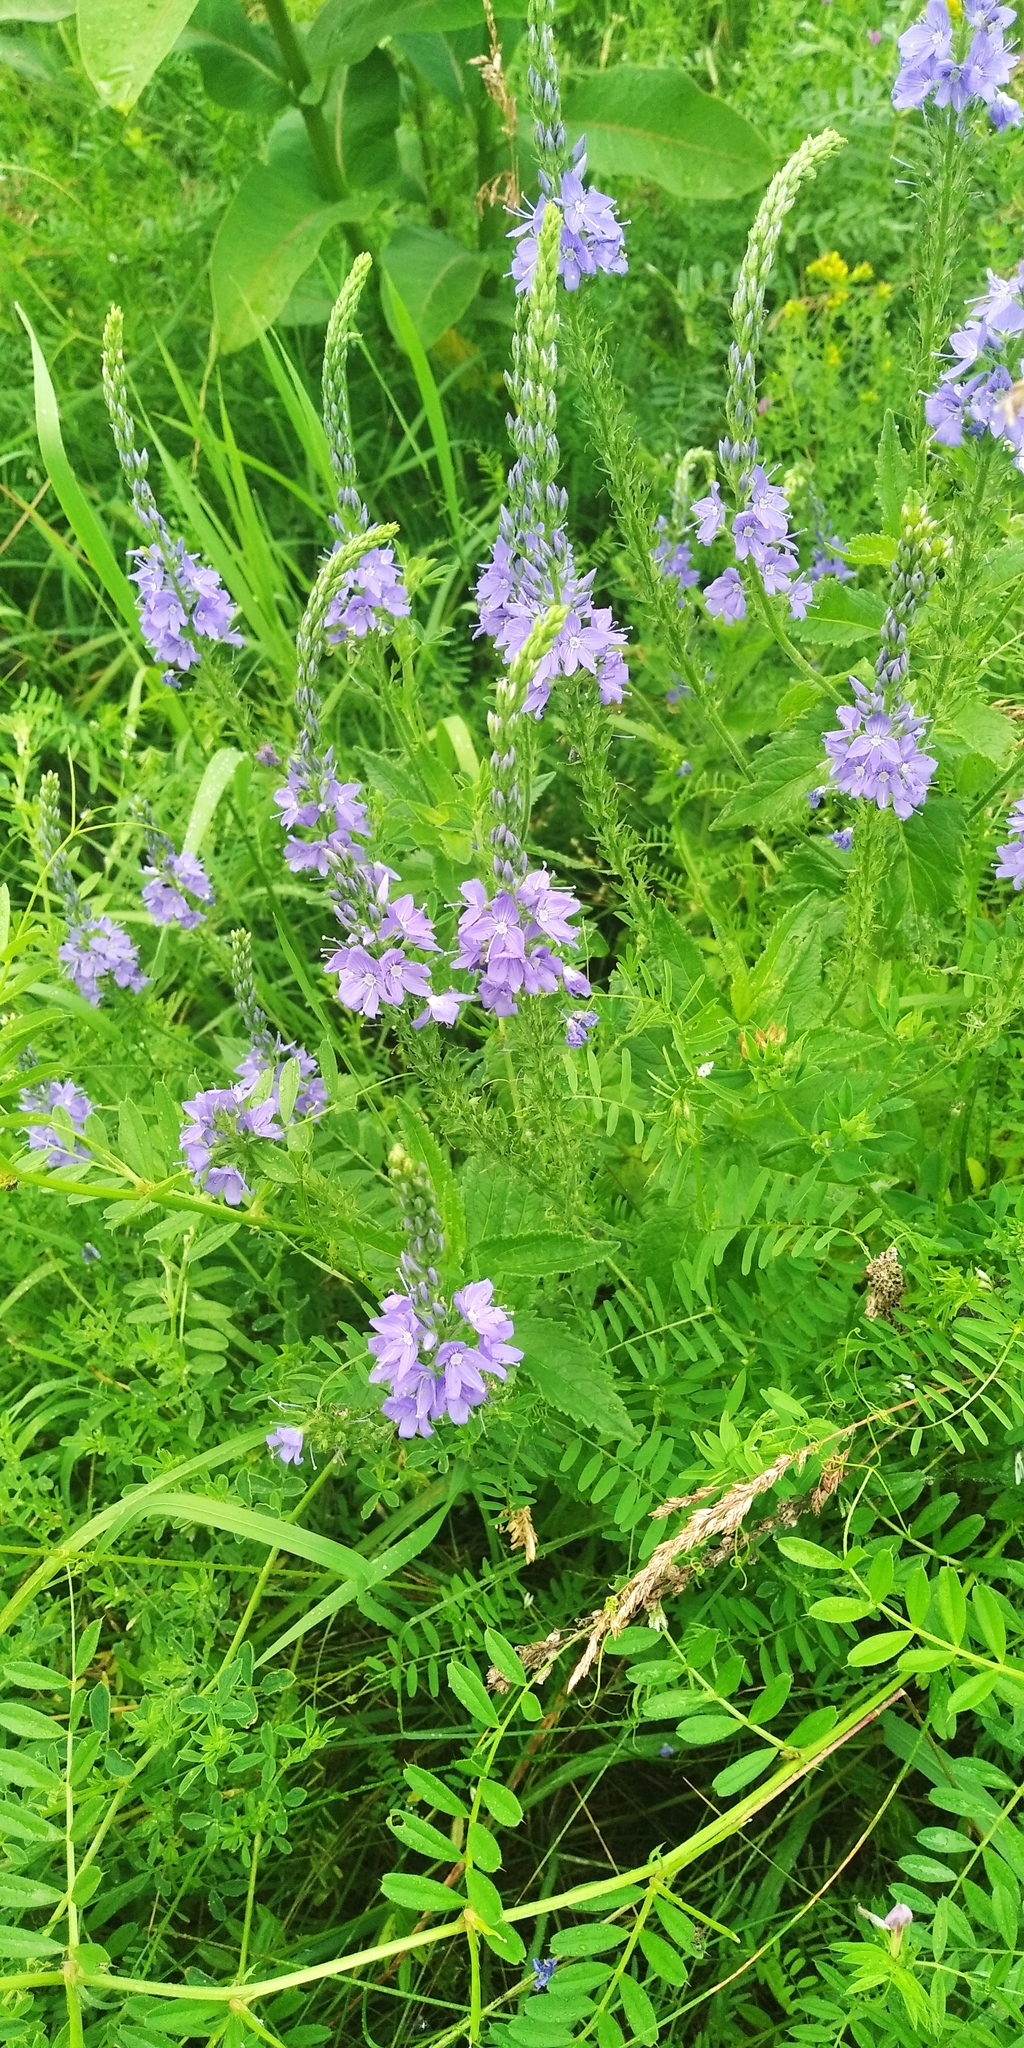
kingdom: Plantae
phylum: Tracheophyta
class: Magnoliopsida
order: Lamiales
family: Plantaginaceae
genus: Veronica
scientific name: Veronica teucrium
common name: Large speedwell
